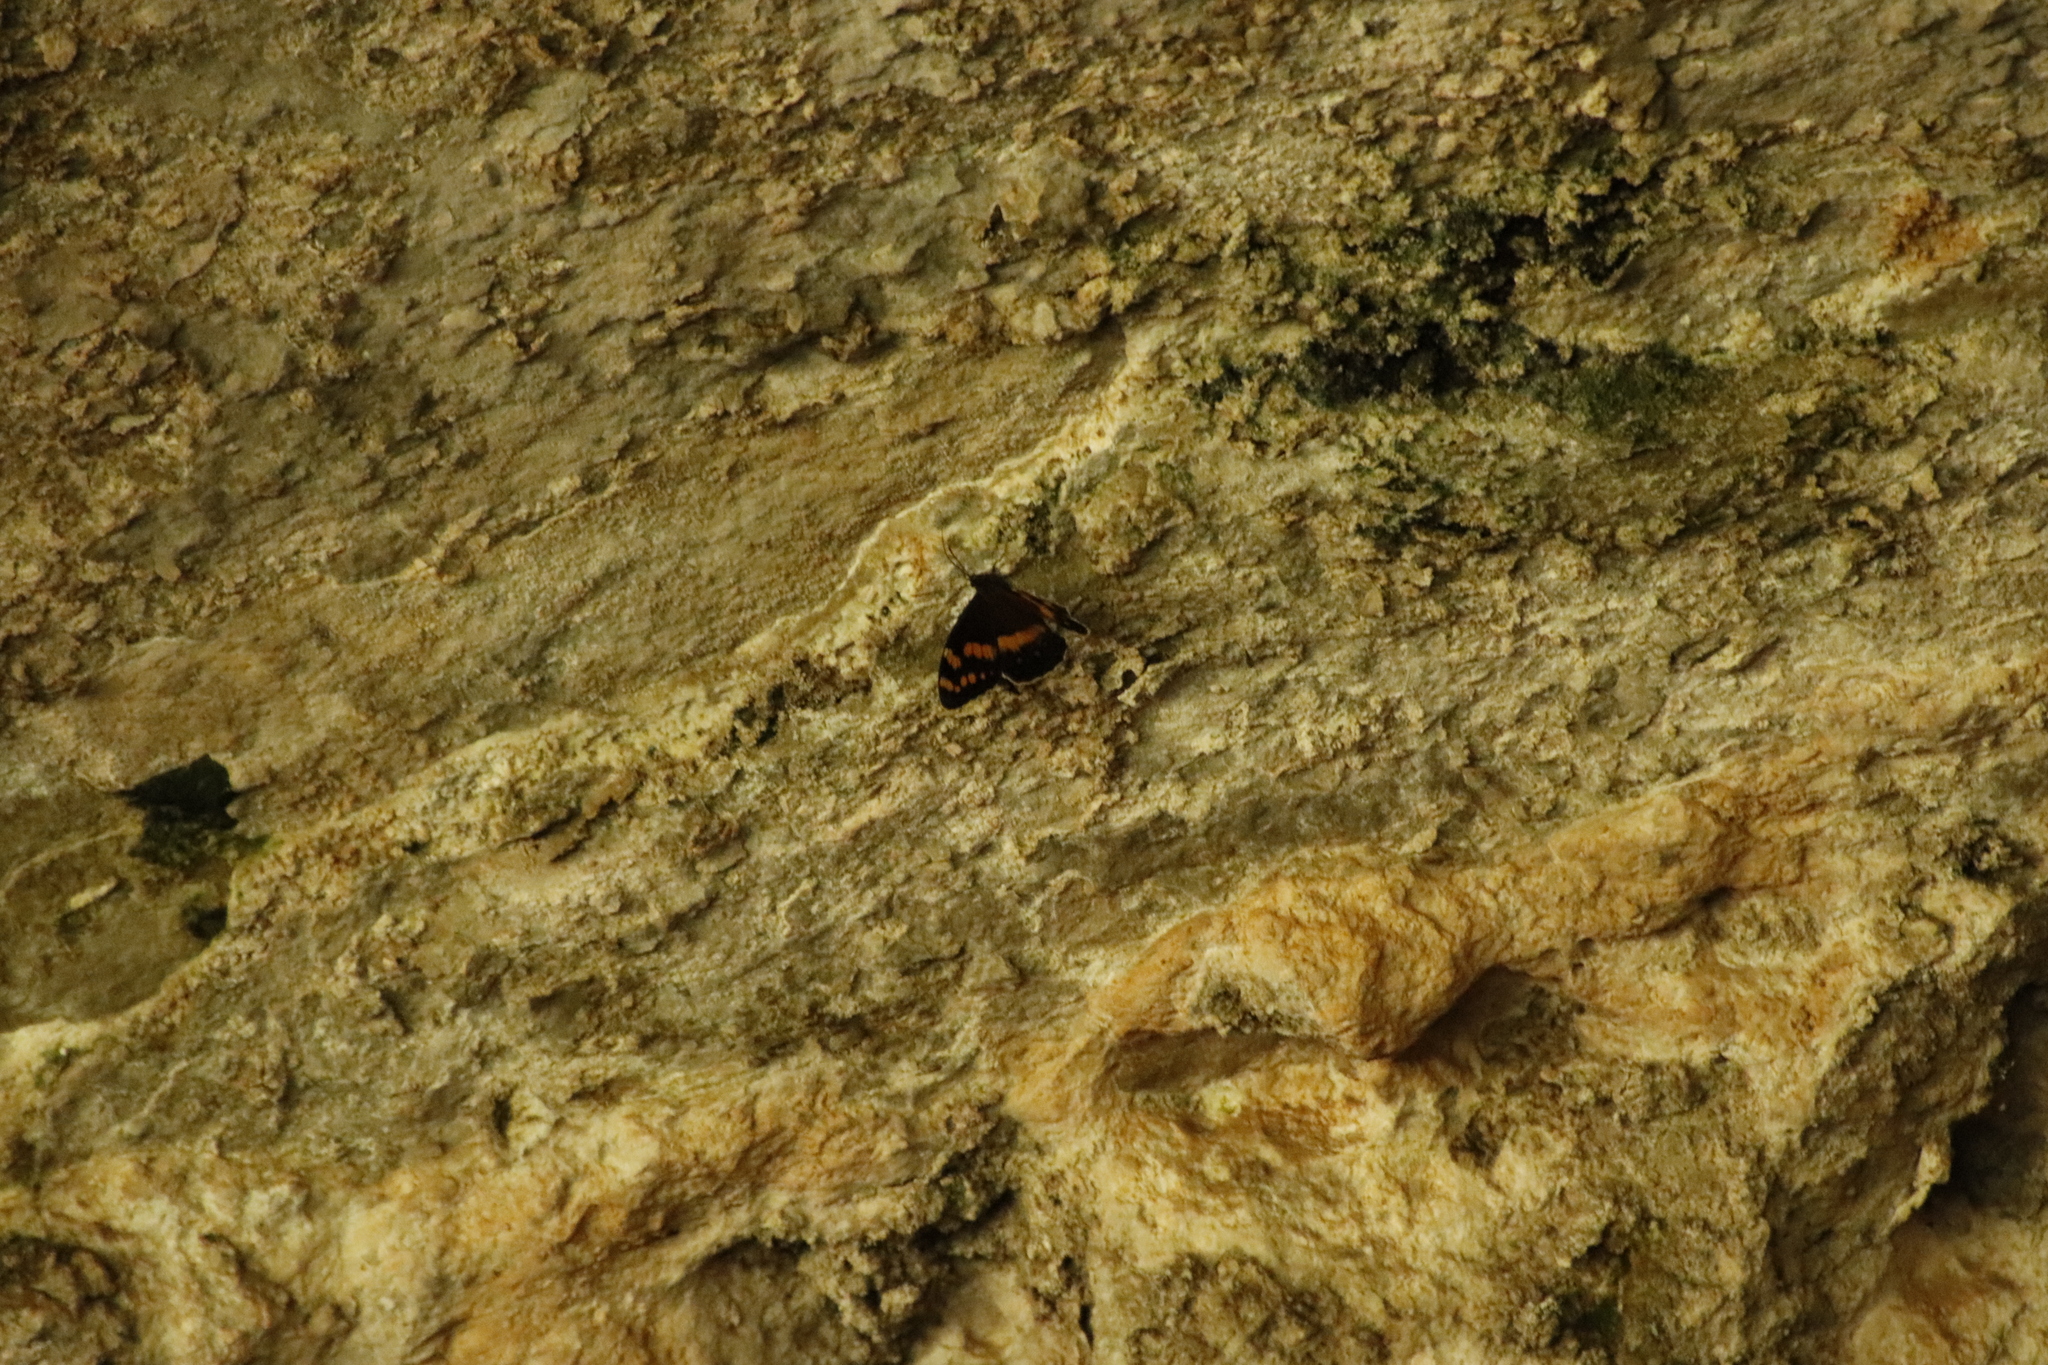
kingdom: Animalia
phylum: Arthropoda
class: Insecta
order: Lepidoptera
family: Nymphalidae
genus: Meneris
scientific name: Meneris Aeropetes tulbaghia
